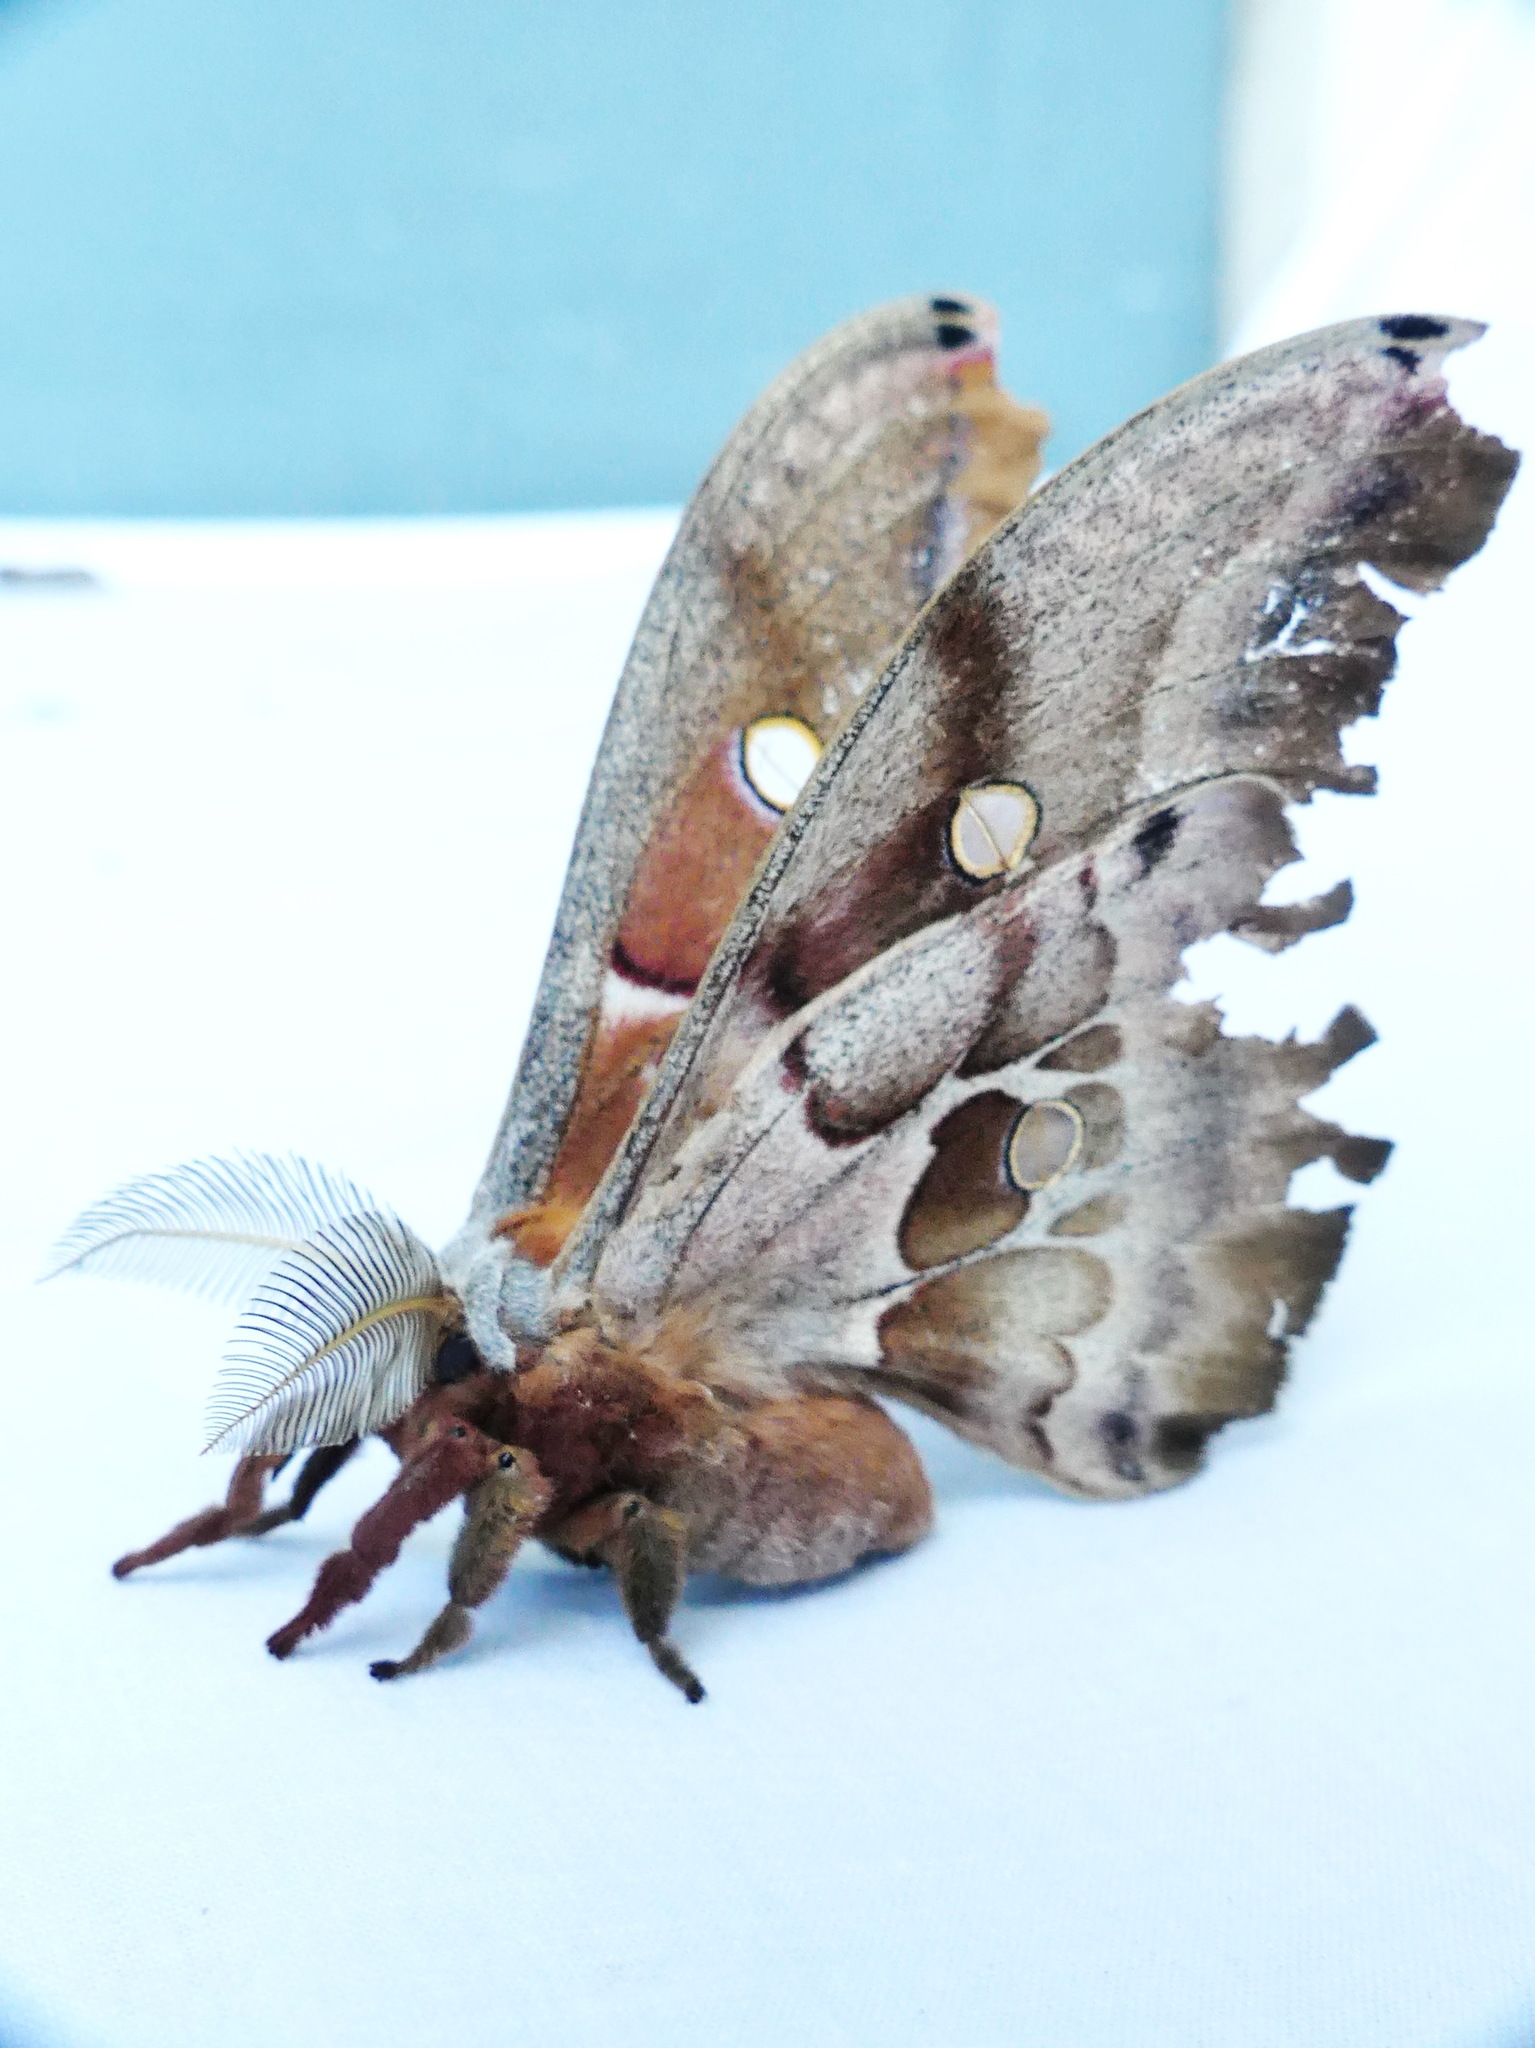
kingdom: Animalia
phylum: Arthropoda
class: Insecta
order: Lepidoptera
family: Saturniidae
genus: Antheraea
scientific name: Antheraea polyphemus
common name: Polyphemus moth
